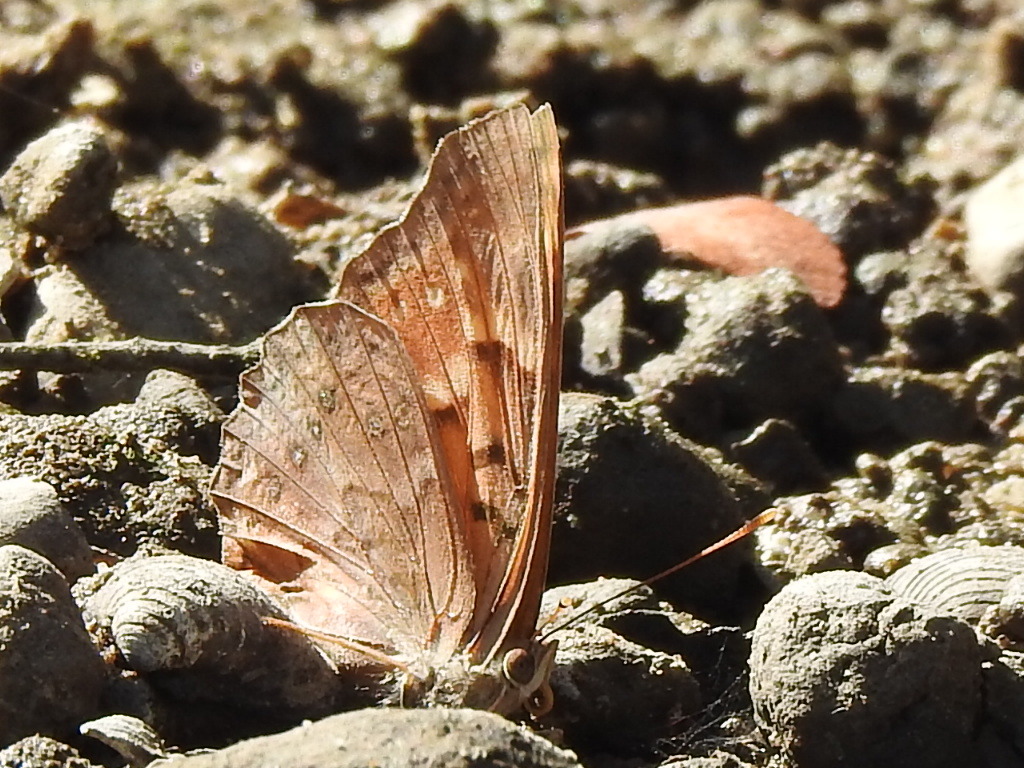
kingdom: Animalia
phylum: Arthropoda
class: Insecta
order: Lepidoptera
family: Nymphalidae
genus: Asterocampa
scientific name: Asterocampa clyton
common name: Tawny emperor
